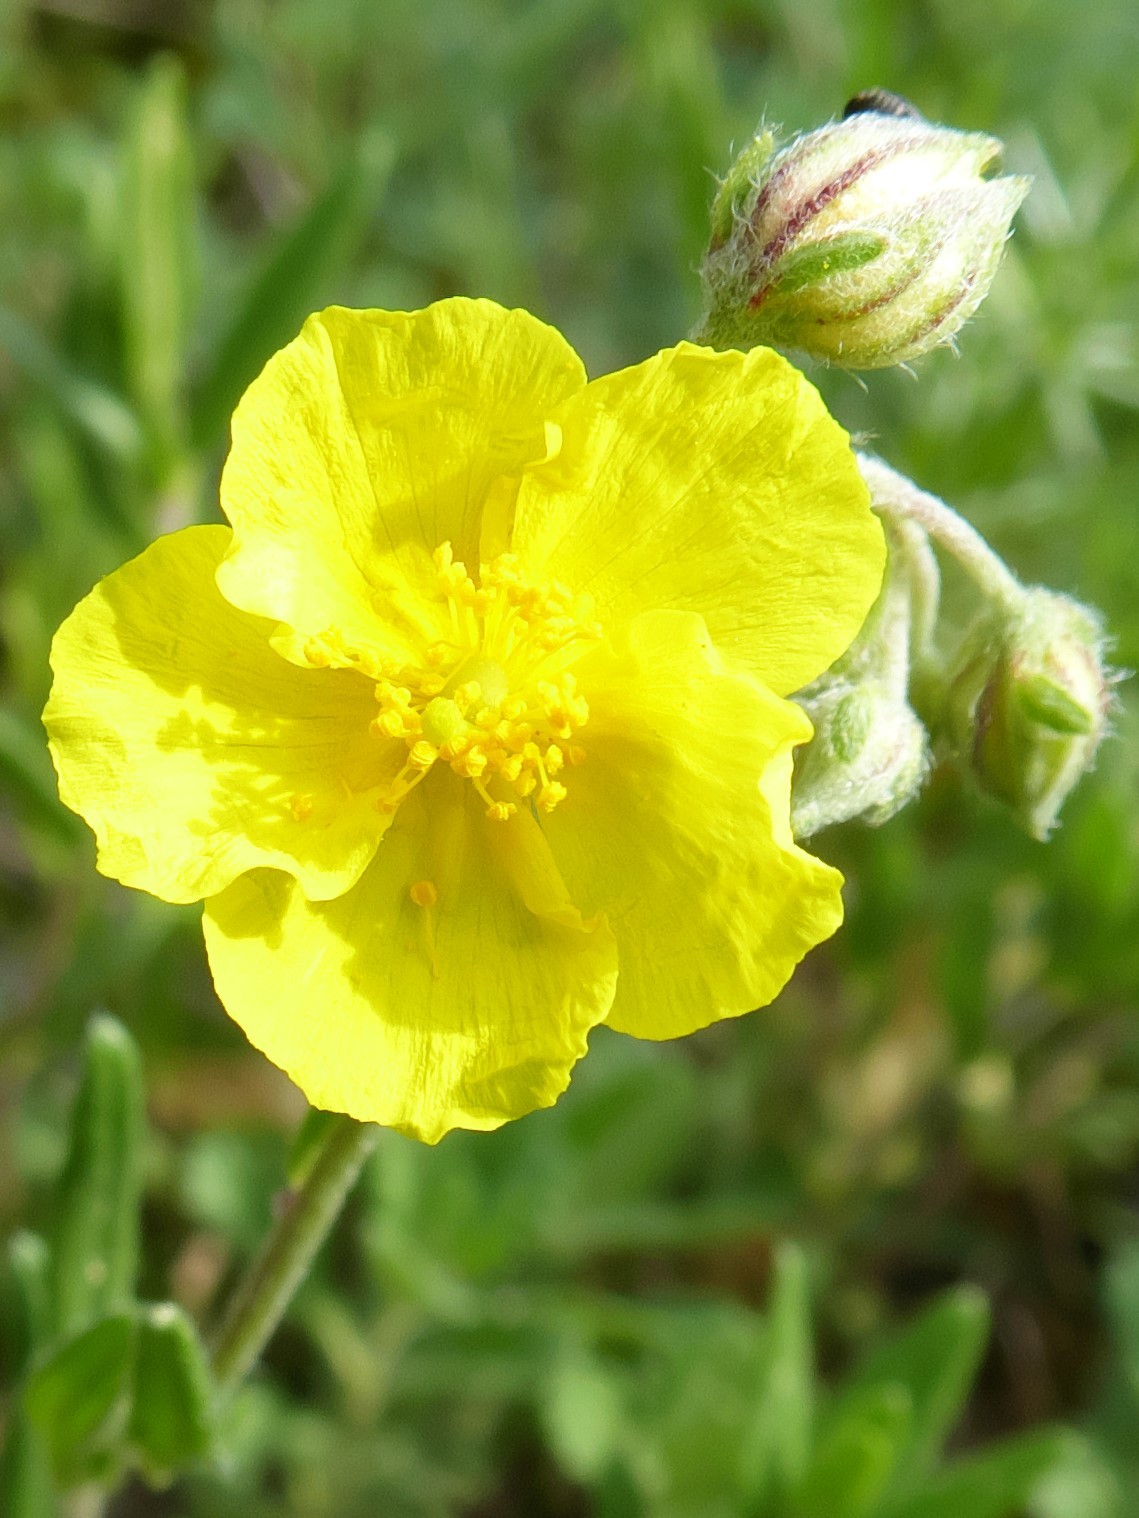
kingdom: Plantae
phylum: Tracheophyta
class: Magnoliopsida
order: Malvales
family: Cistaceae
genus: Helianthemum
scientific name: Helianthemum nummularium
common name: Common rock-rose
